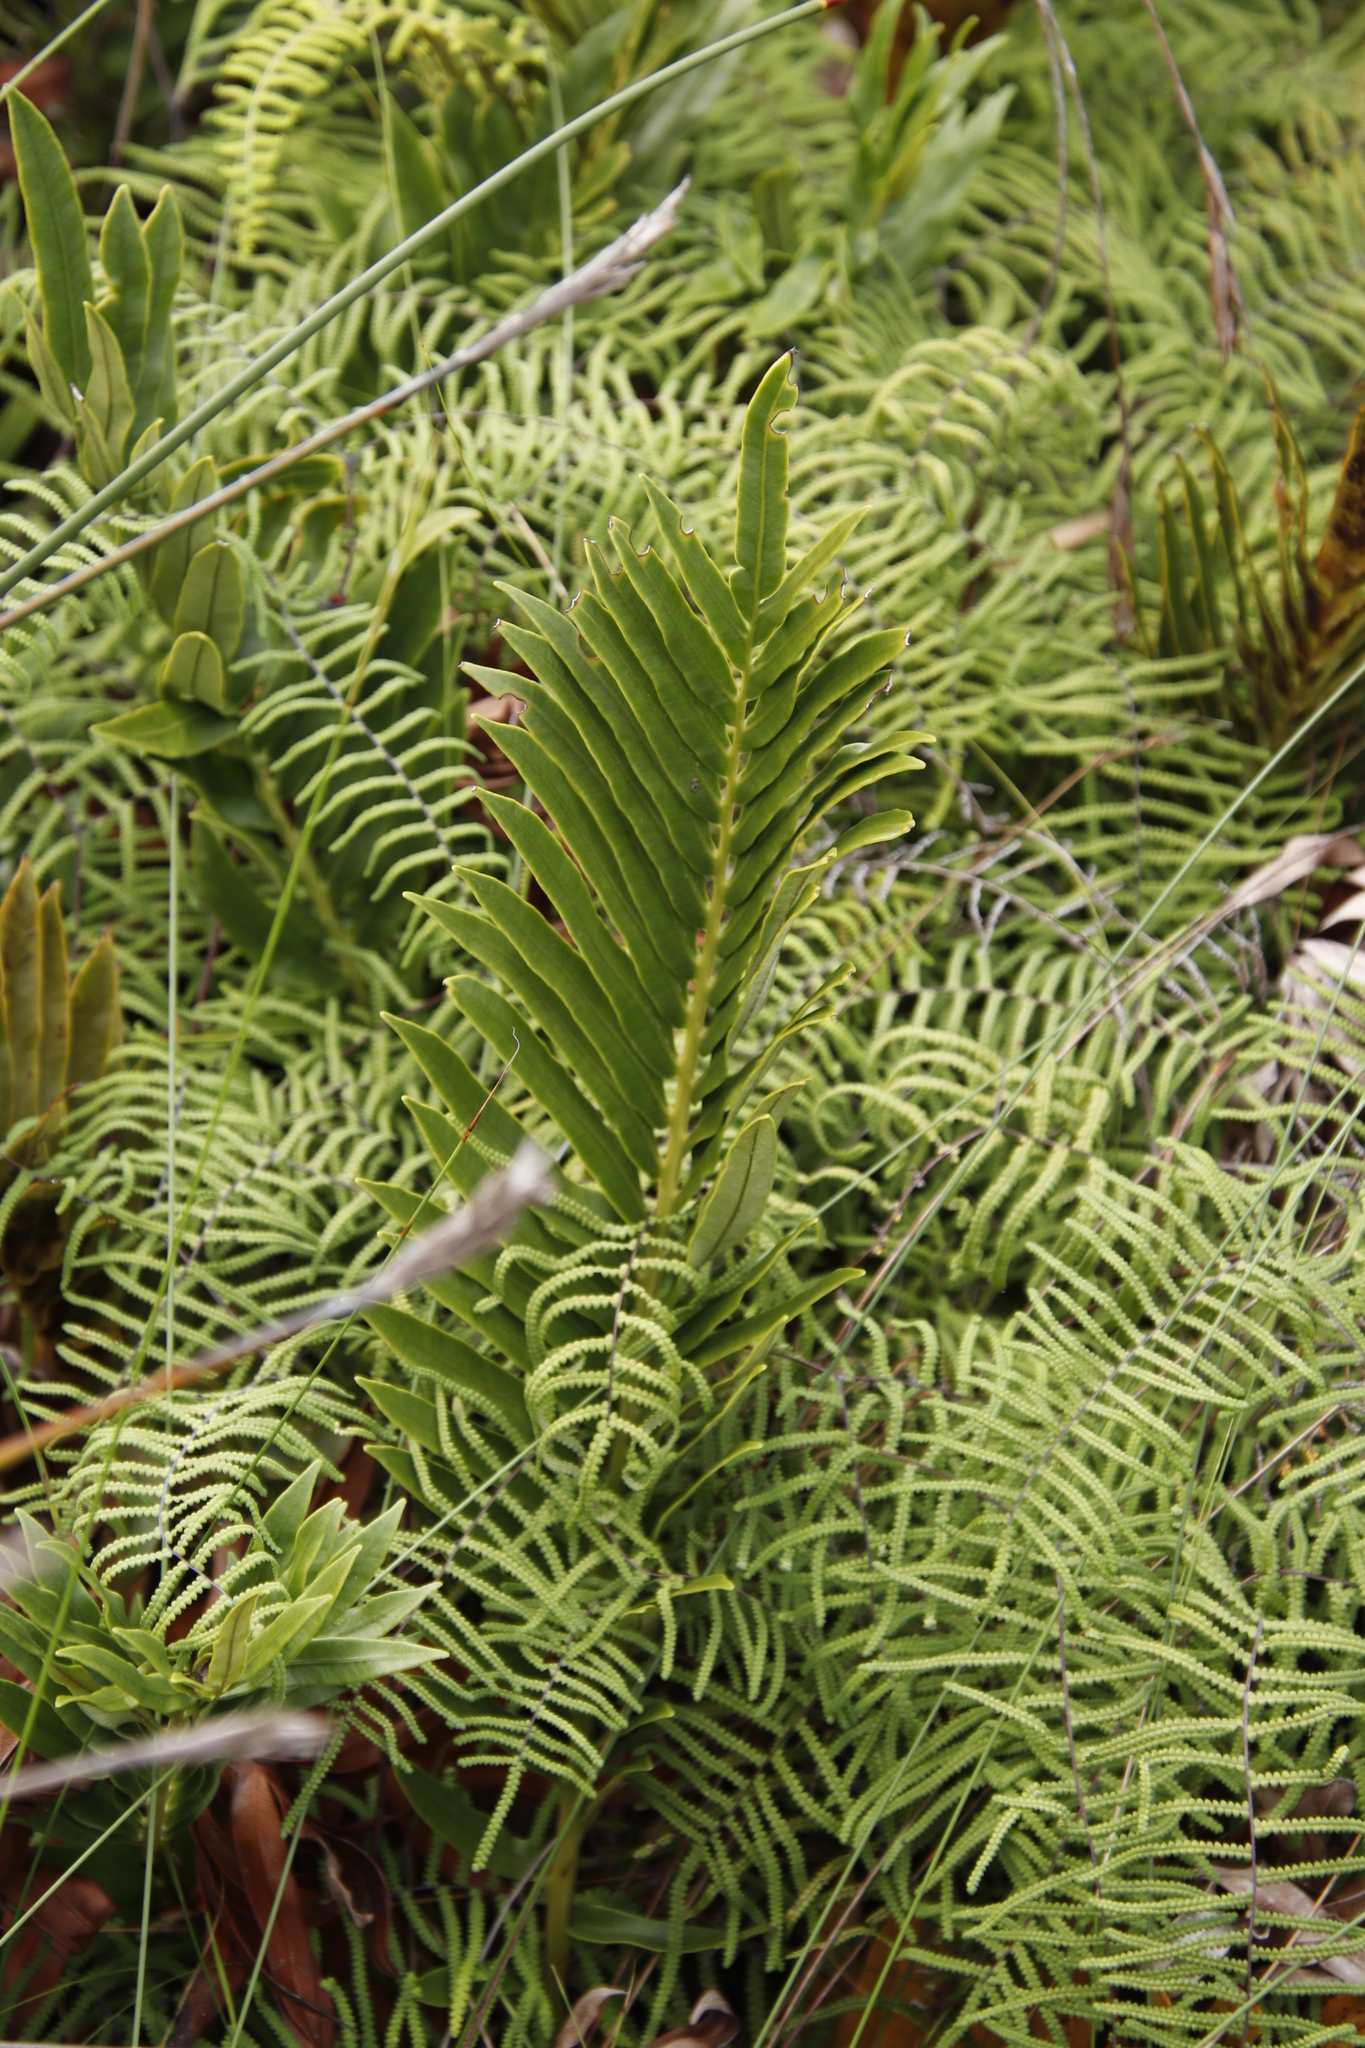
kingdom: Plantae
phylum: Tracheophyta
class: Polypodiopsida
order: Polypodiales
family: Blechnaceae
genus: Lomariocycas
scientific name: Lomariocycas tabularis
